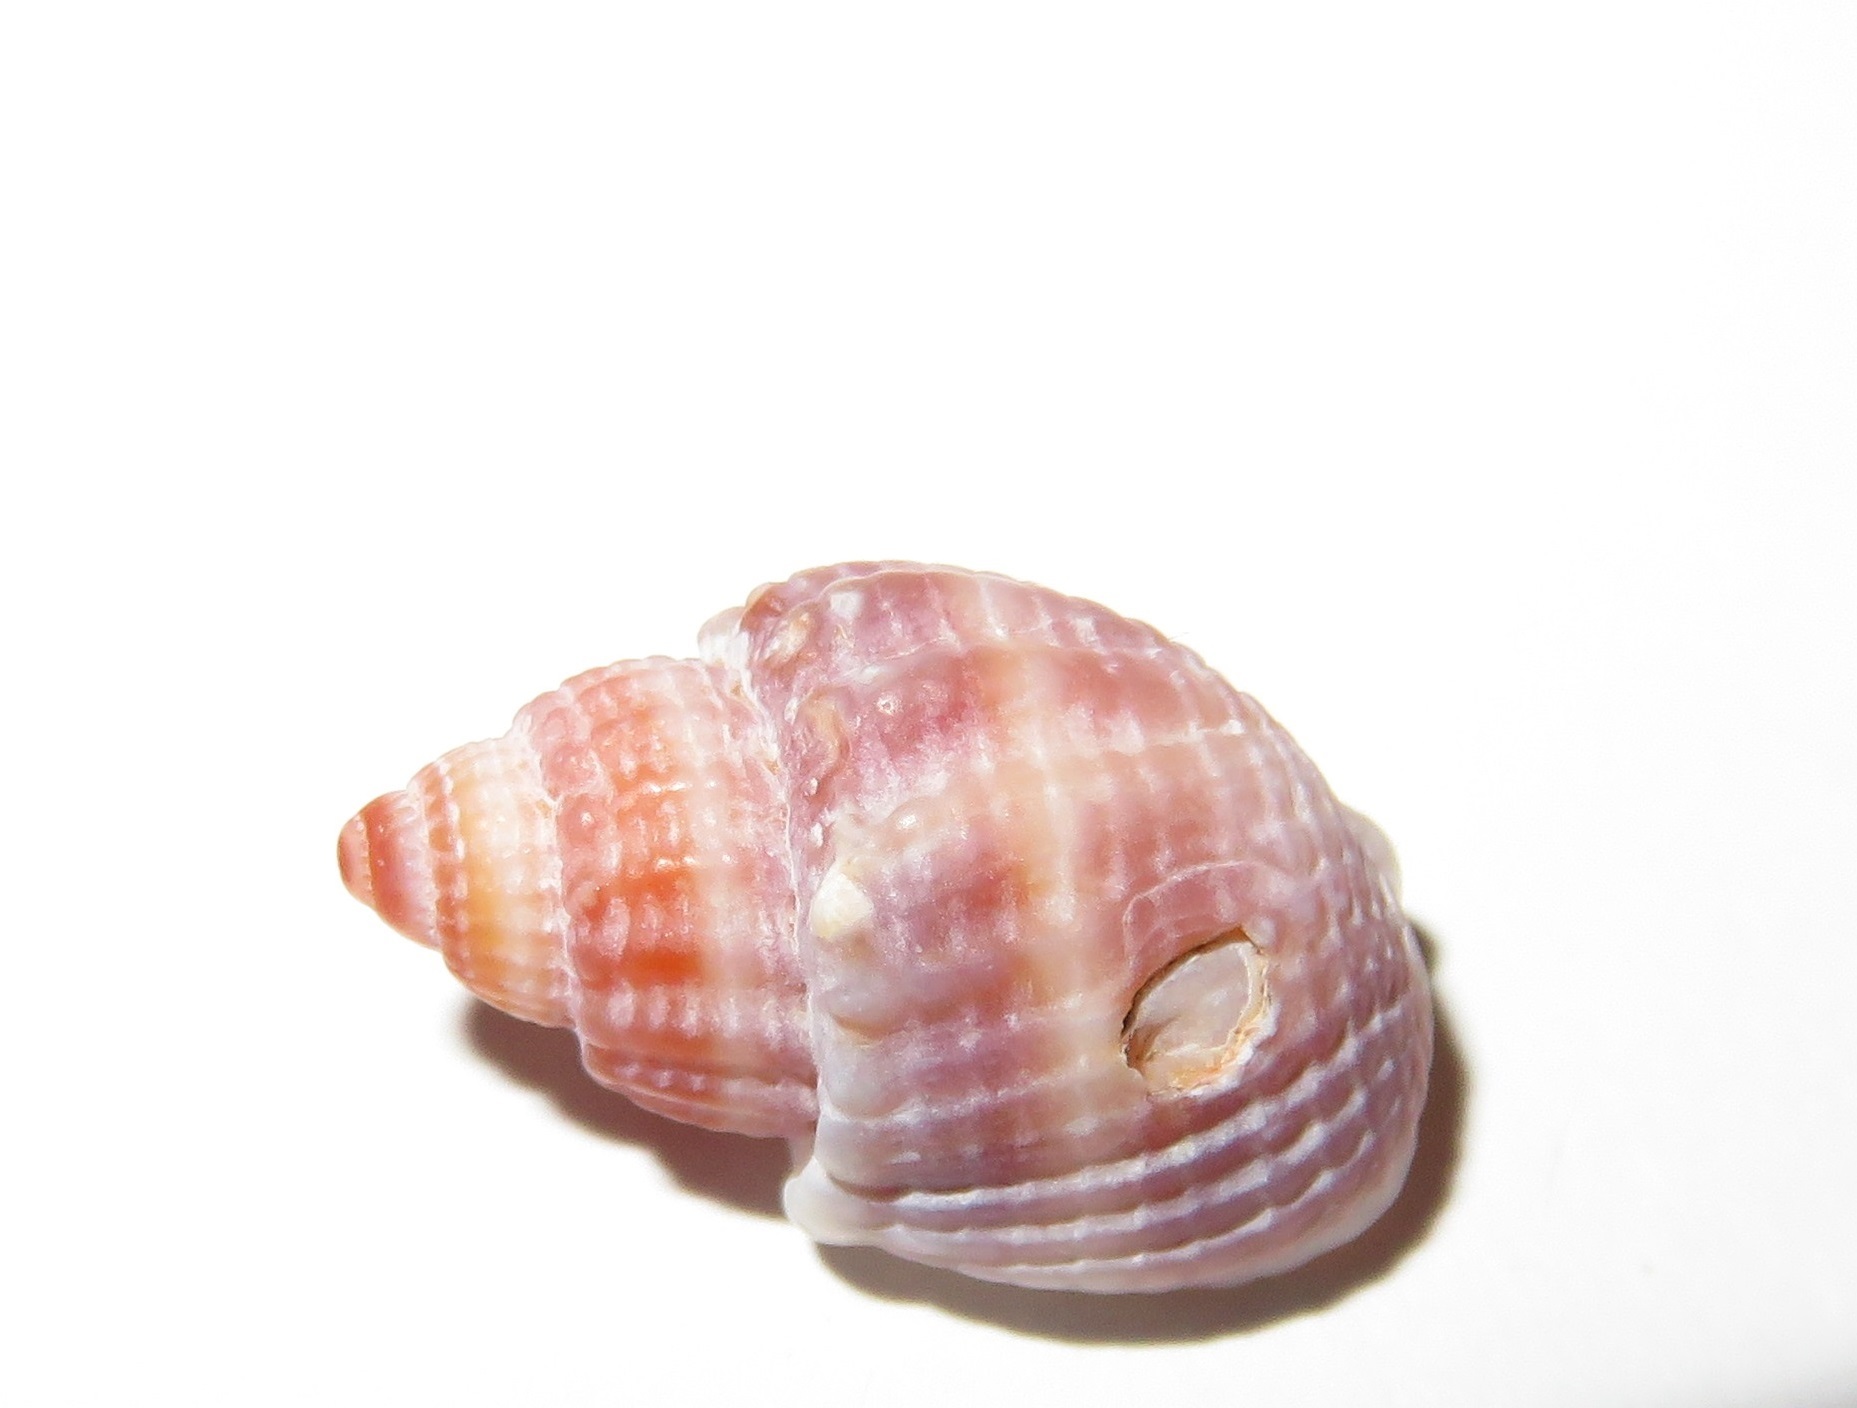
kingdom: Animalia
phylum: Mollusca
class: Gastropoda
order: Neogastropoda
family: Nassariidae
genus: Tritia
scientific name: Tritia nitida
